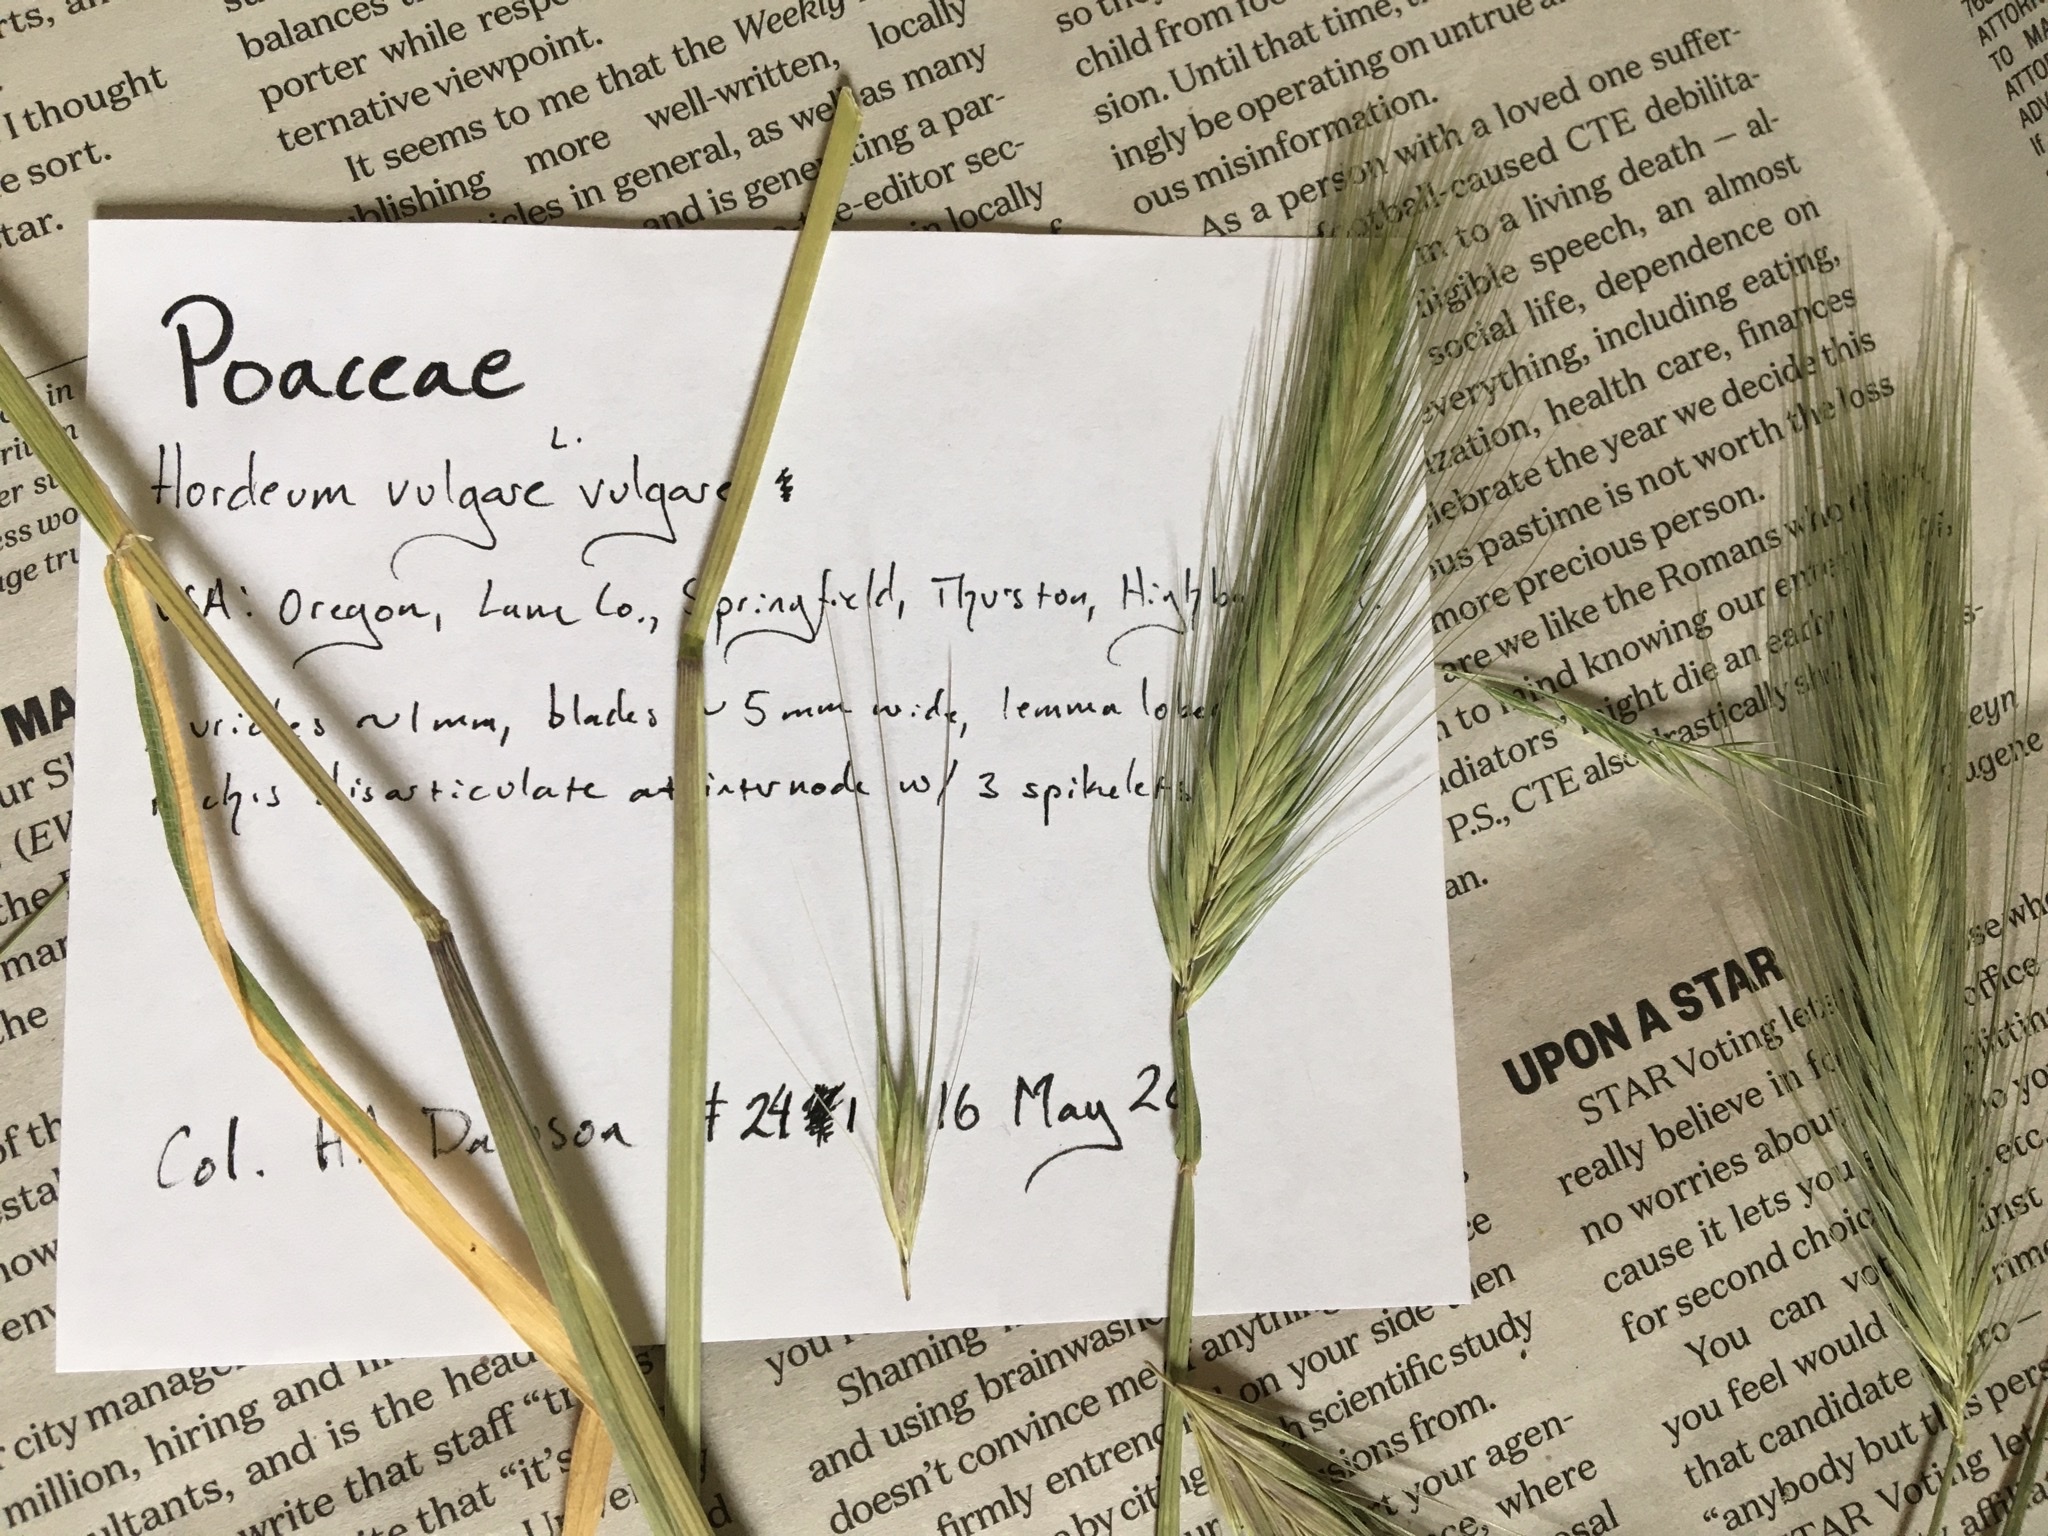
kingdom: Plantae
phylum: Tracheophyta
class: Liliopsida
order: Poales
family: Poaceae
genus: Hordeum
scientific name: Hordeum murinum
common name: Wall barley
